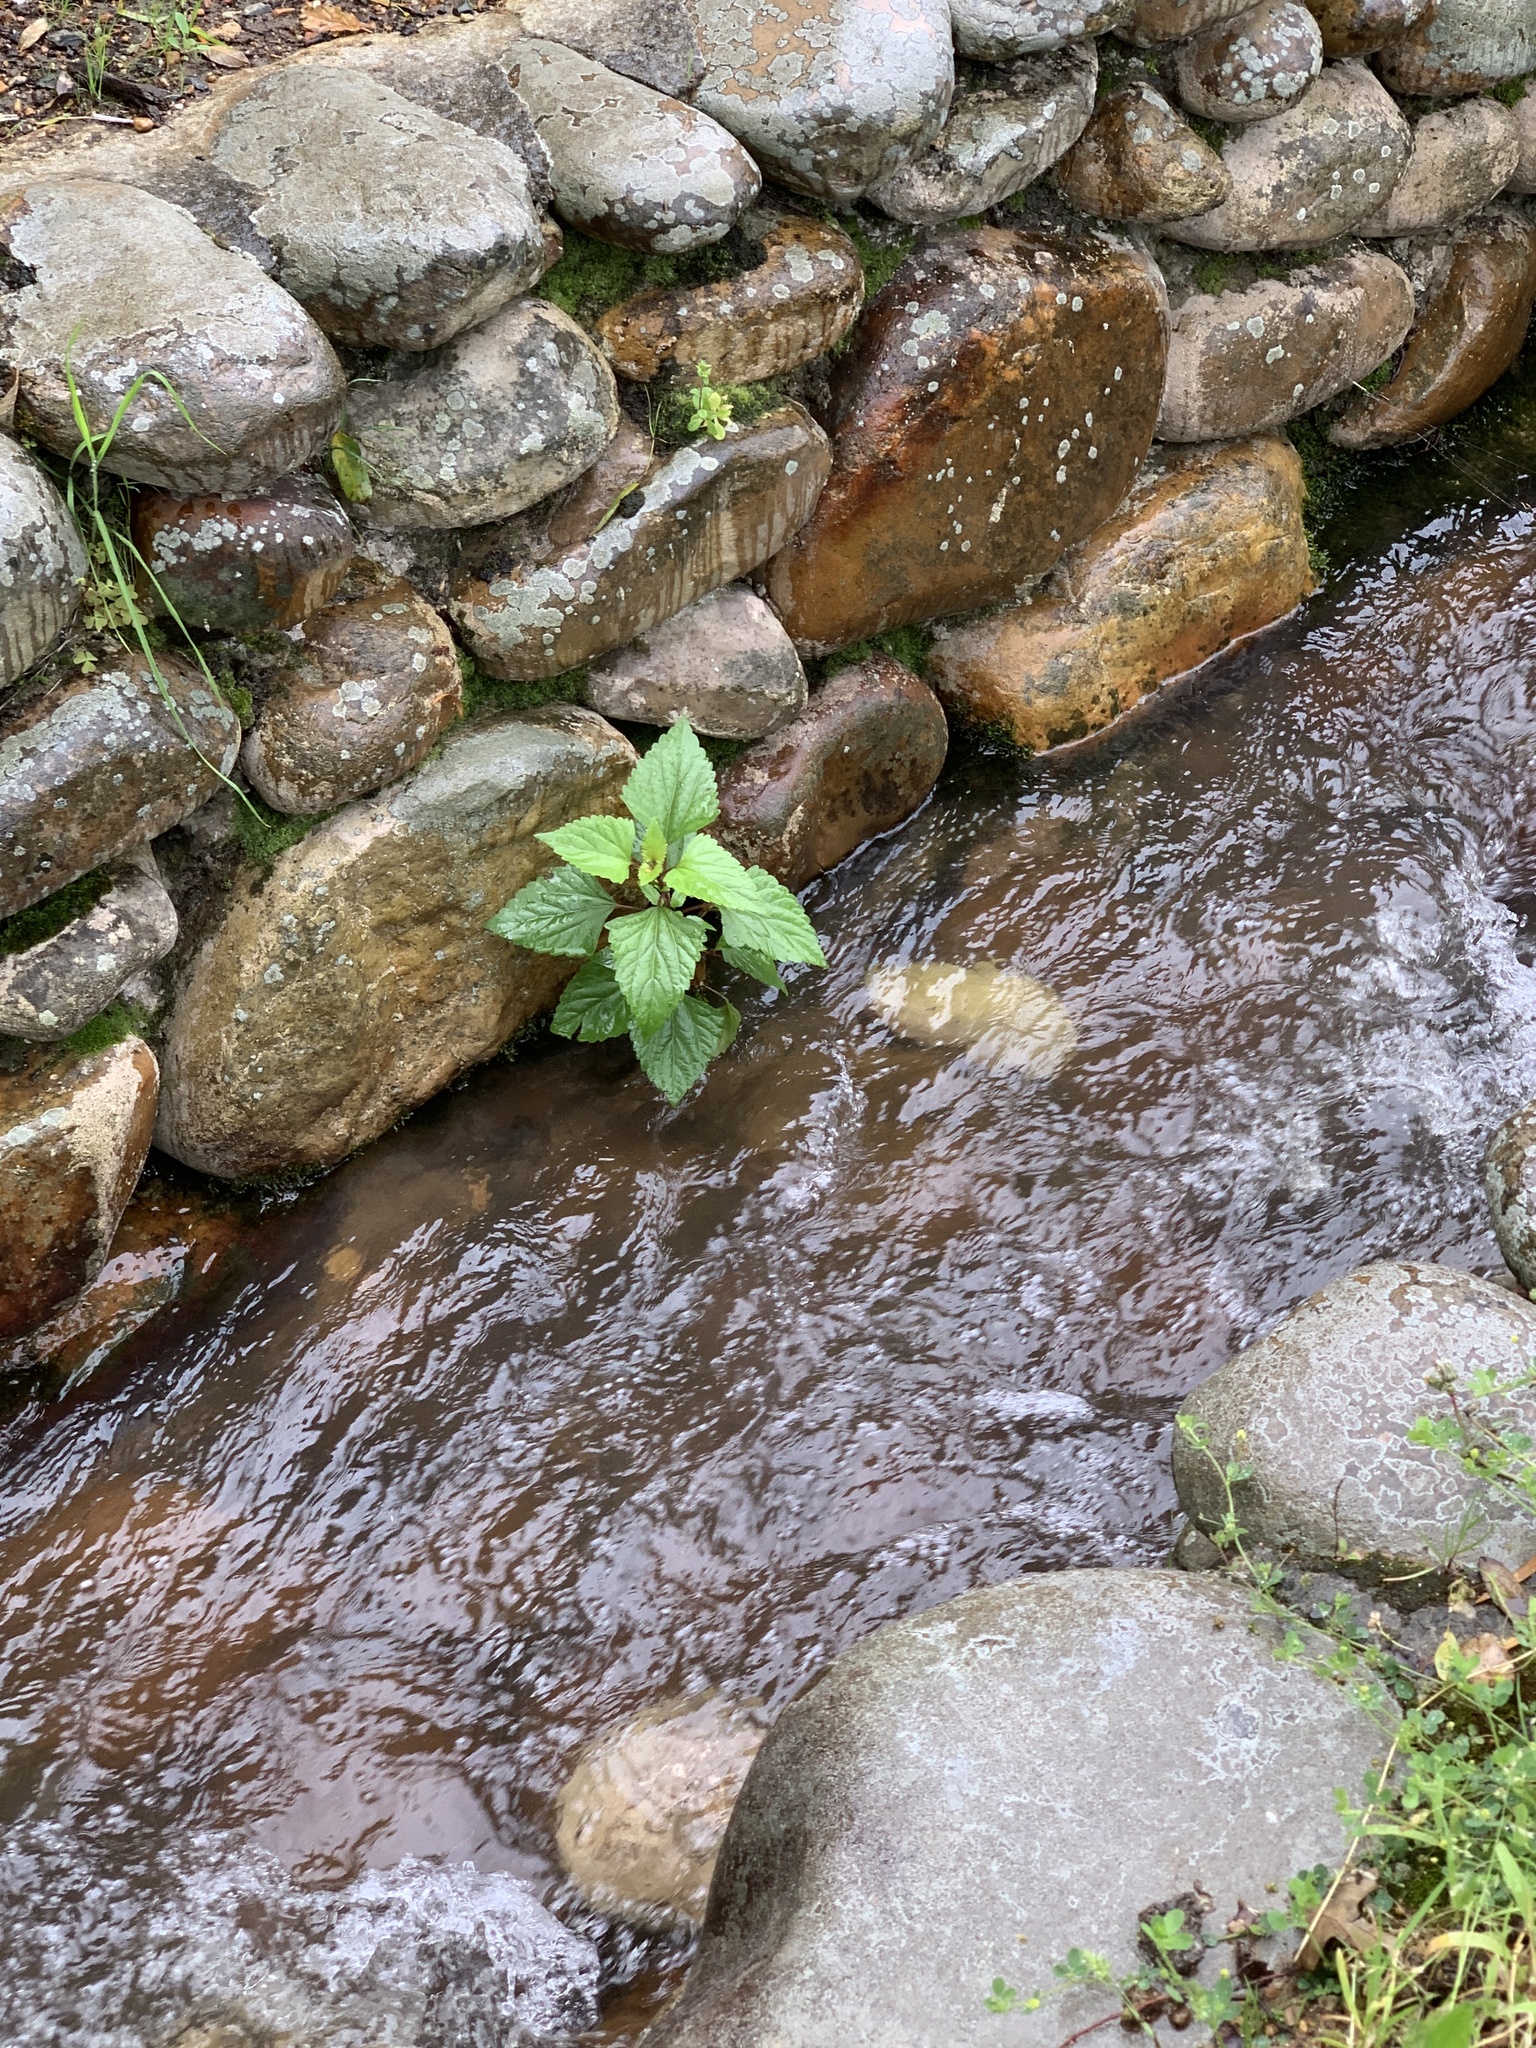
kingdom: Plantae
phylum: Tracheophyta
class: Magnoliopsida
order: Asterales
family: Asteraceae
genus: Ageratina
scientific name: Ageratina adenophora
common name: Sticky snakeroot
